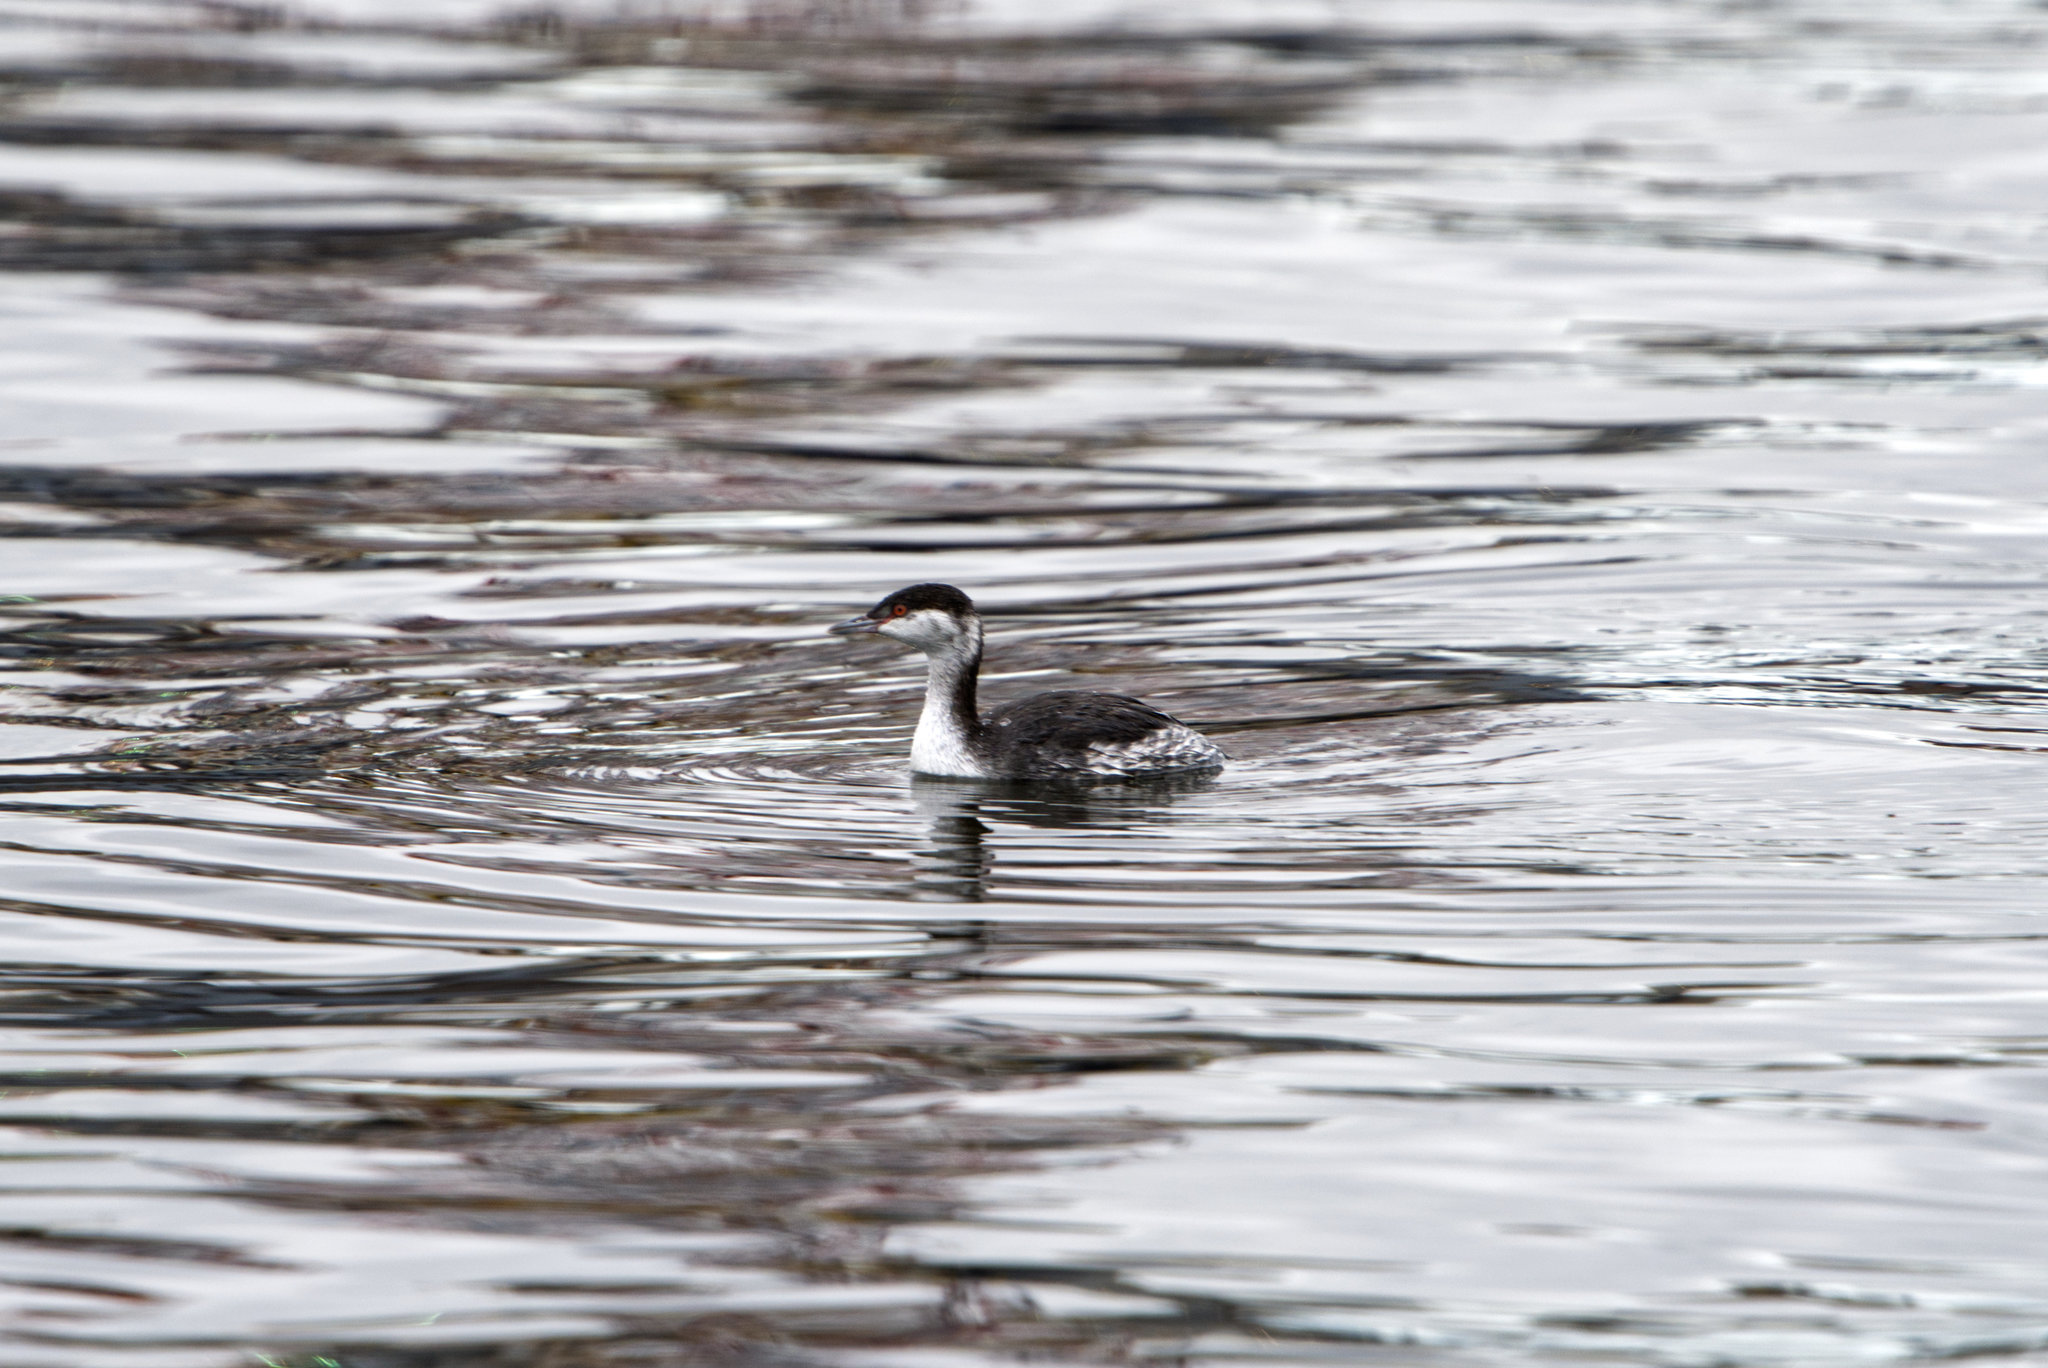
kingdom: Animalia
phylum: Chordata
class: Aves
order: Podicipediformes
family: Podicipedidae
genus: Podiceps
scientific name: Podiceps auritus
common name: Horned grebe
